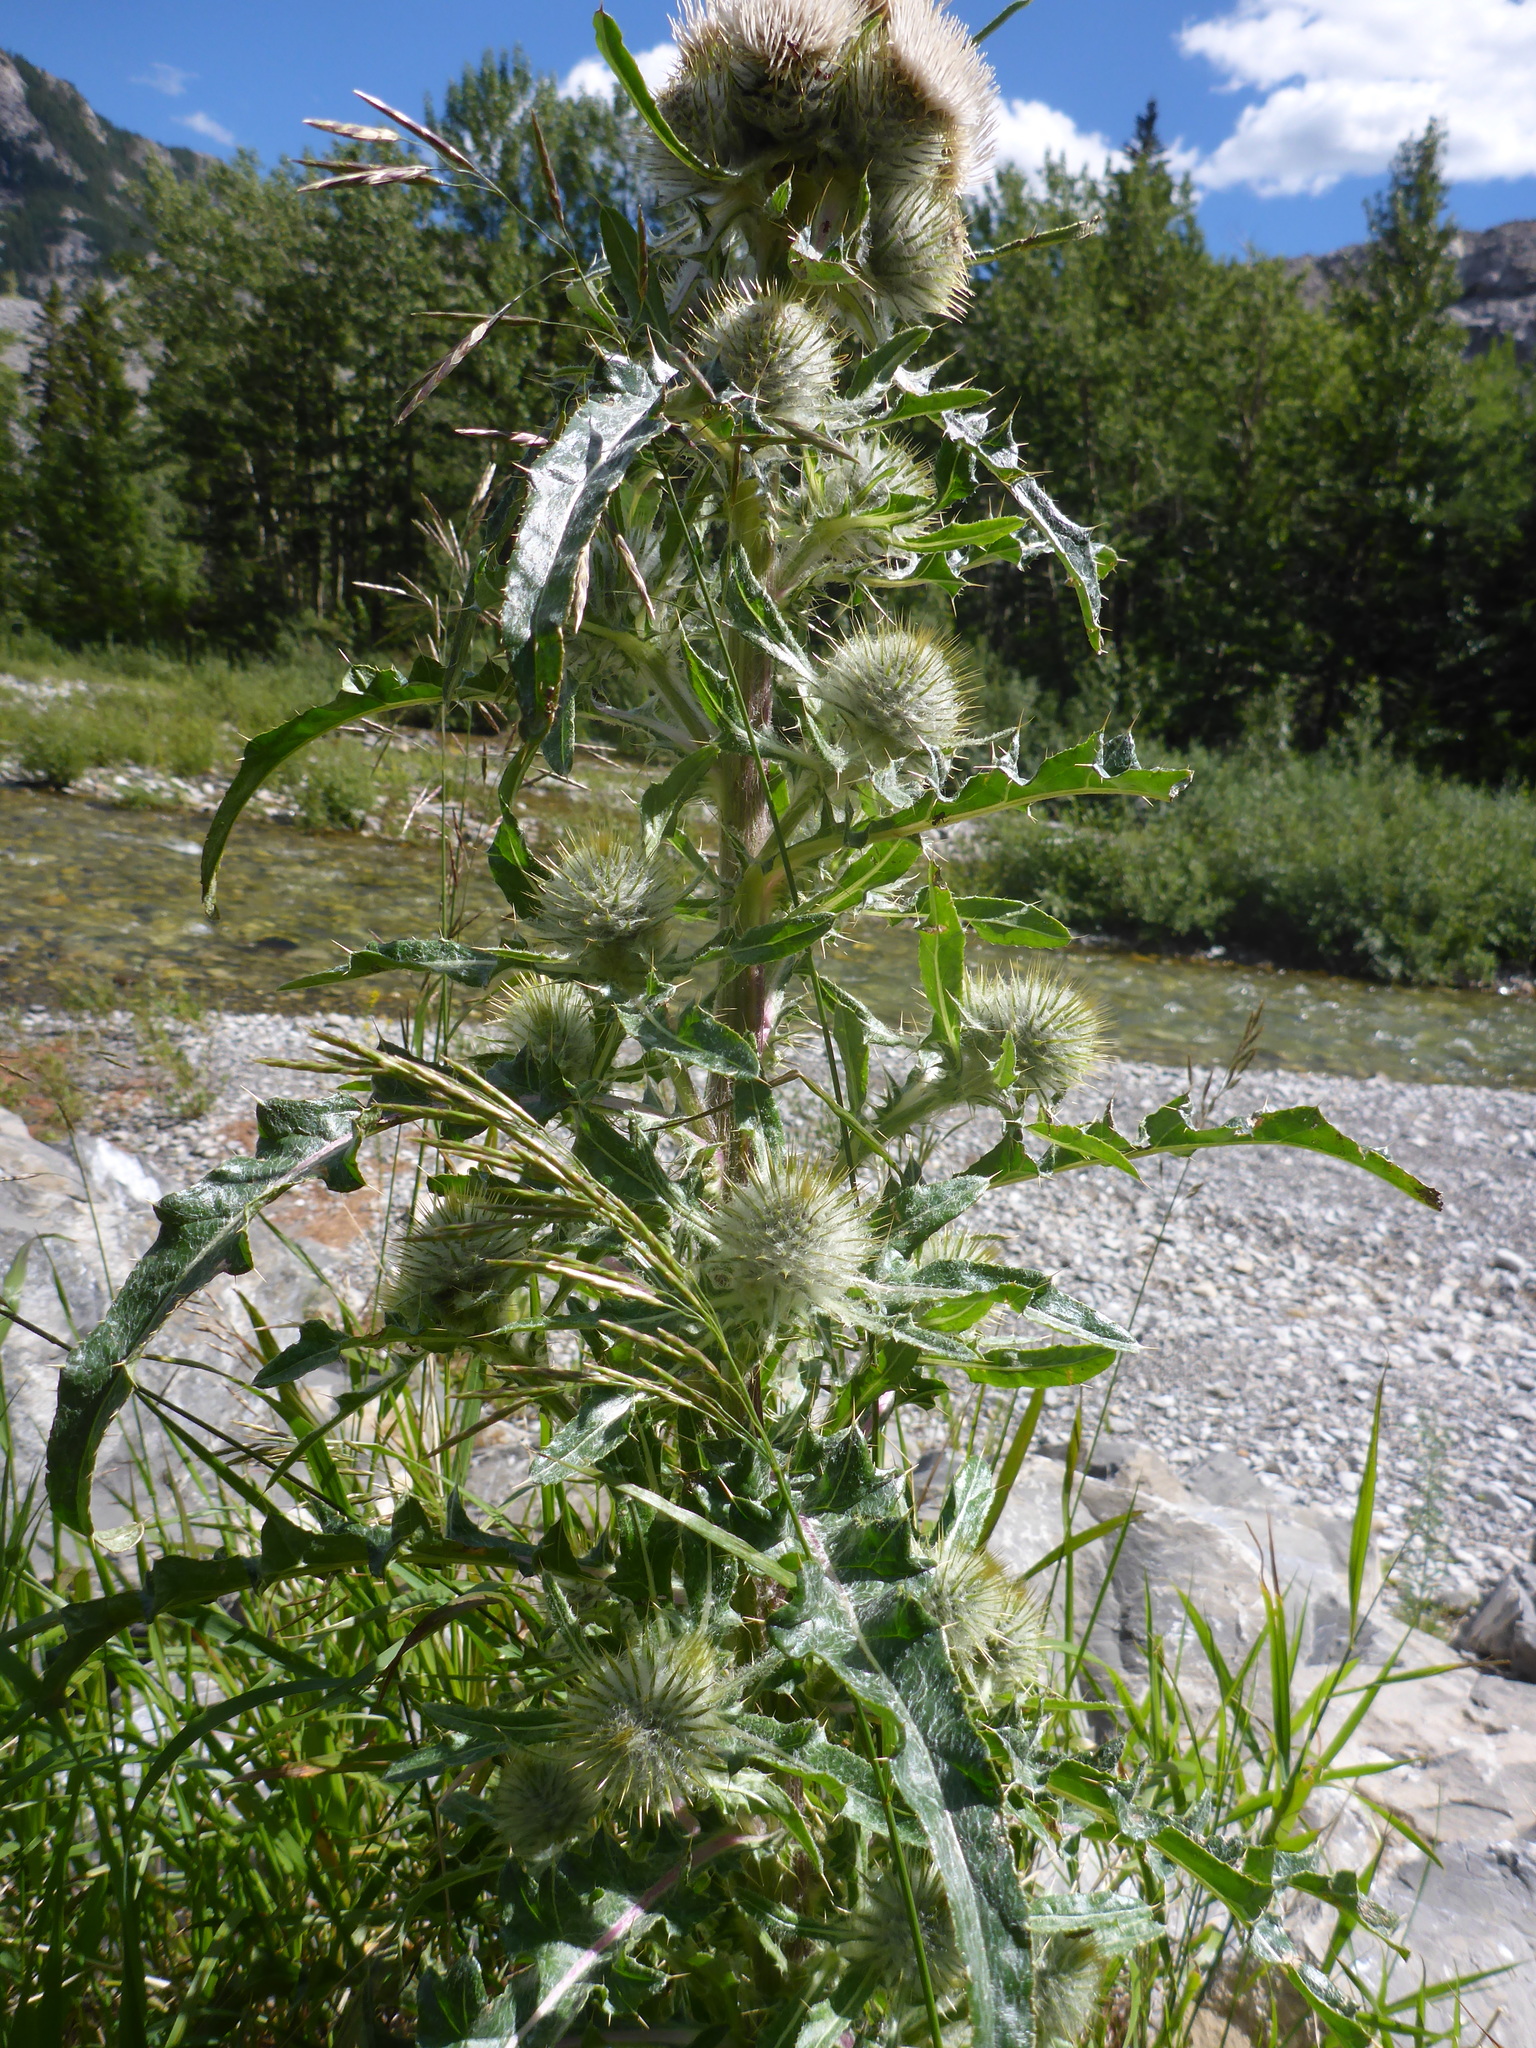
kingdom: Plantae
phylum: Tracheophyta
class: Magnoliopsida
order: Asterales
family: Asteraceae
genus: Cirsium
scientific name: Cirsium hookerianum
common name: Hooker's thistle
